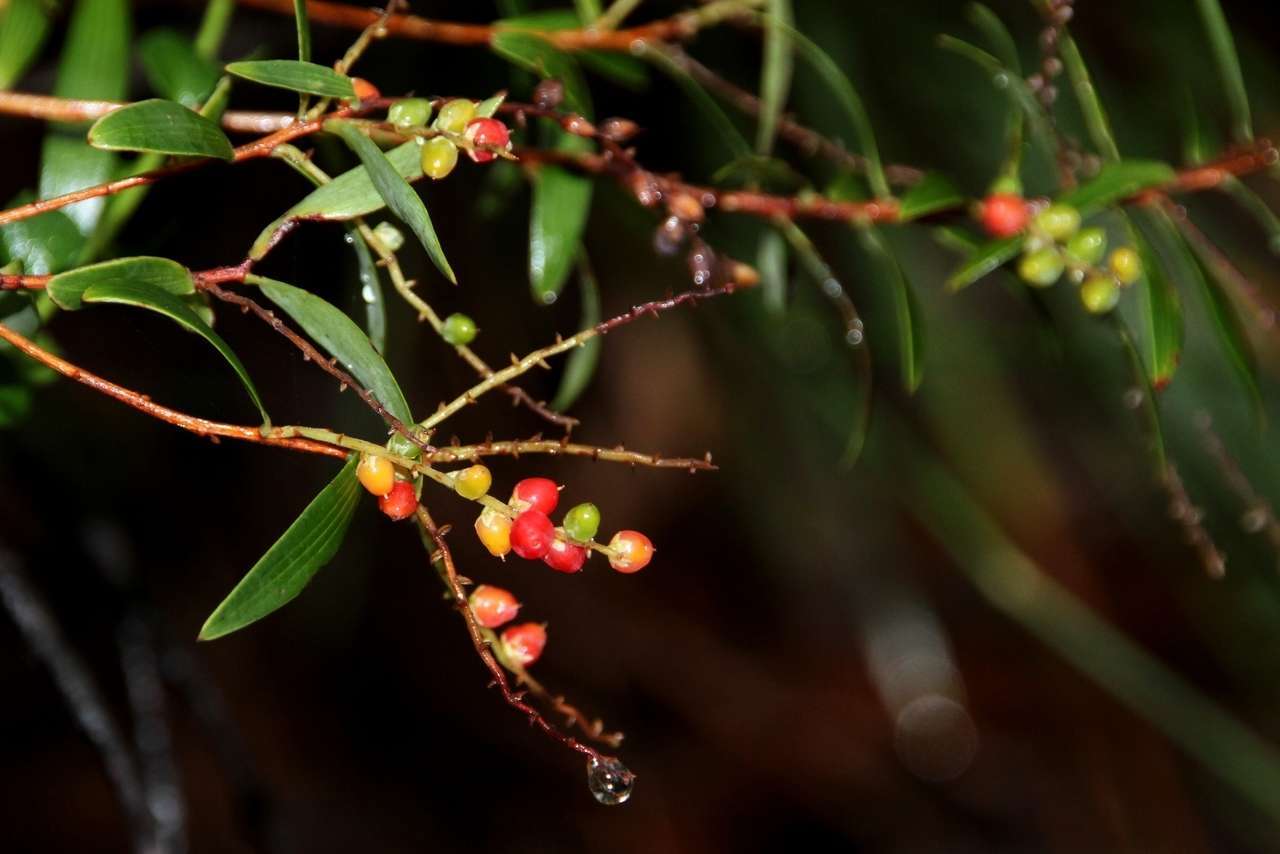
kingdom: Plantae
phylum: Tracheophyta
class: Magnoliopsida
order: Ericales
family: Ericaceae
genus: Leucopogon
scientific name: Leucopogon lanceolatus
